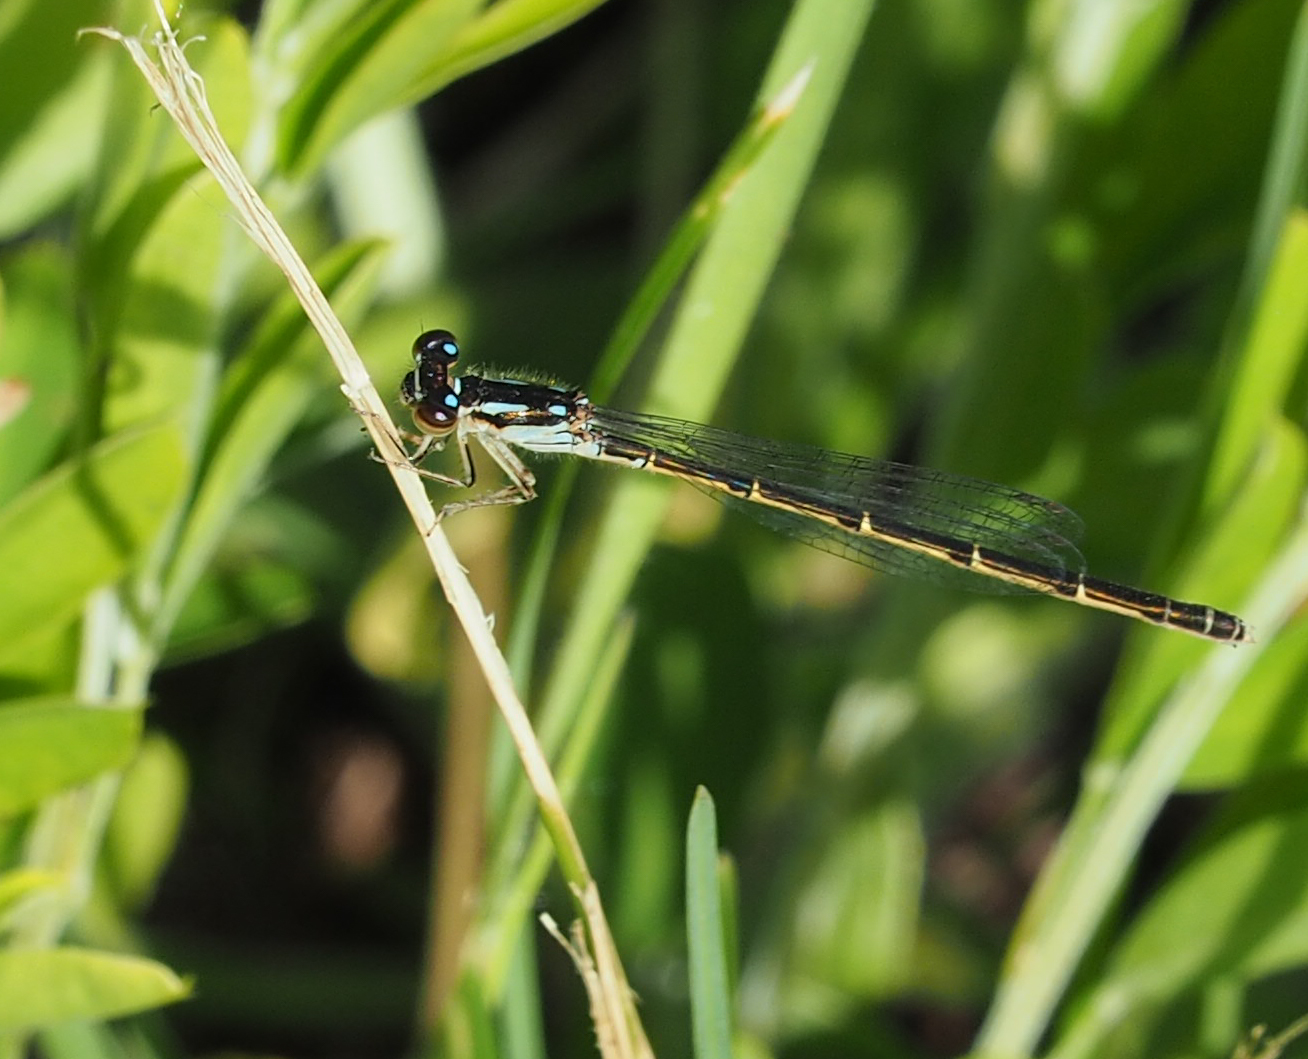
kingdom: Animalia
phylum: Arthropoda
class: Insecta
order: Odonata
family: Coenagrionidae
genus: Ischnura
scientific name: Ischnura posita
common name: Fragile forktail
